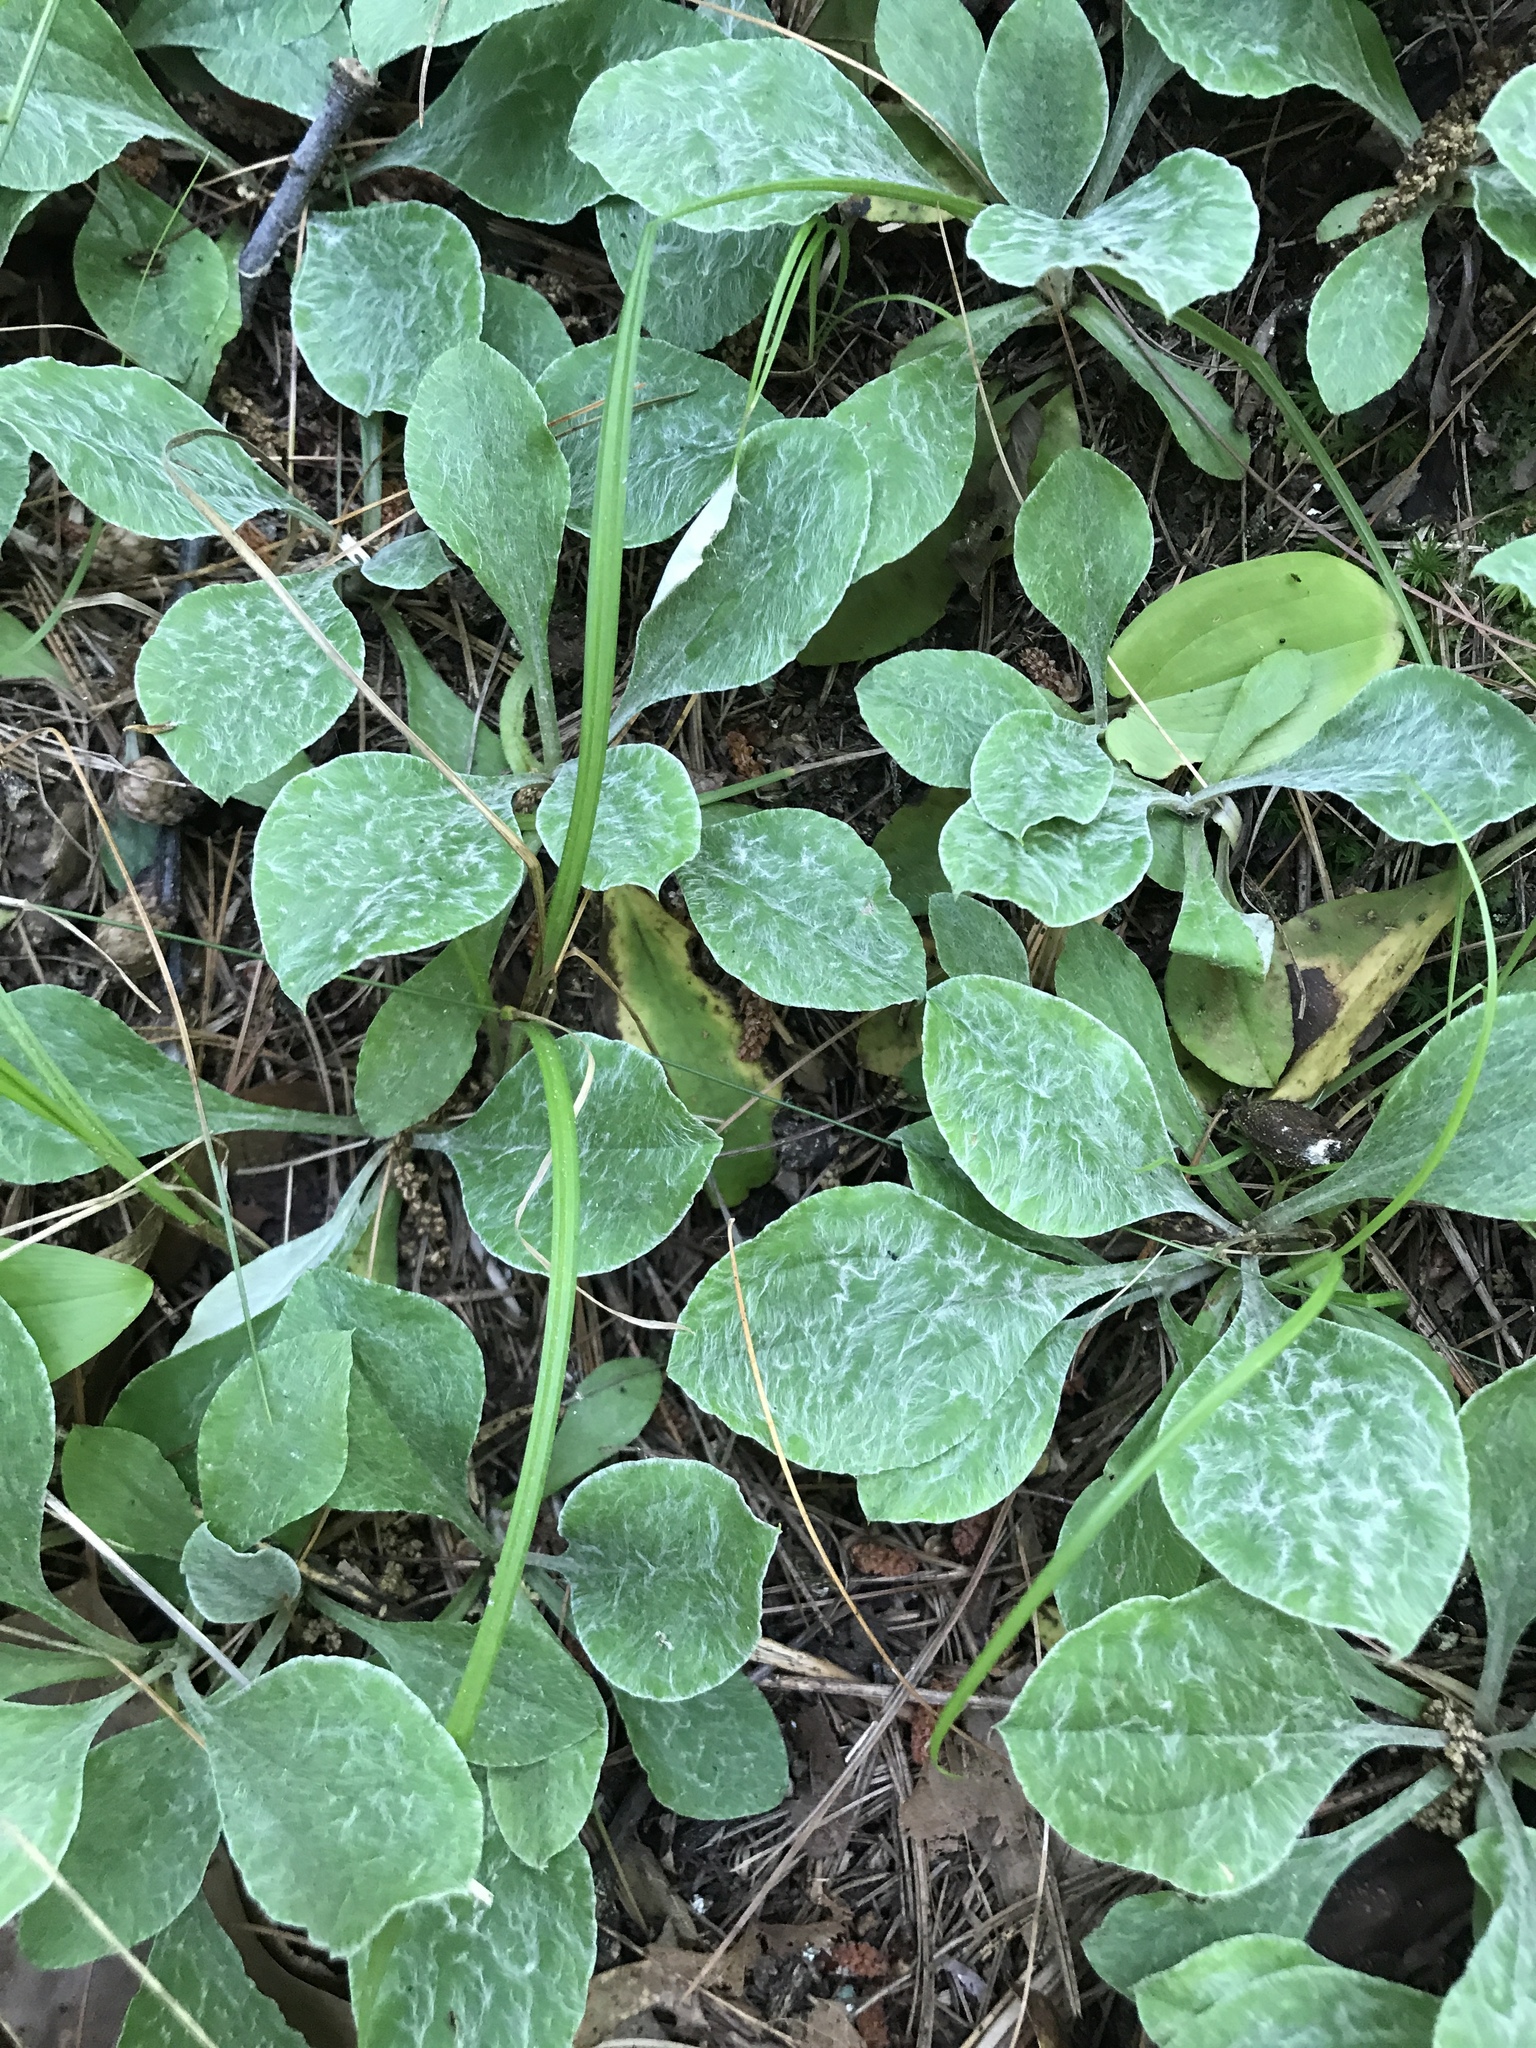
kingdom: Plantae
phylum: Tracheophyta
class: Magnoliopsida
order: Asterales
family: Asteraceae
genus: Antennaria
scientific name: Antennaria plantaginifolia
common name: Plantain-leaved pussytoes
